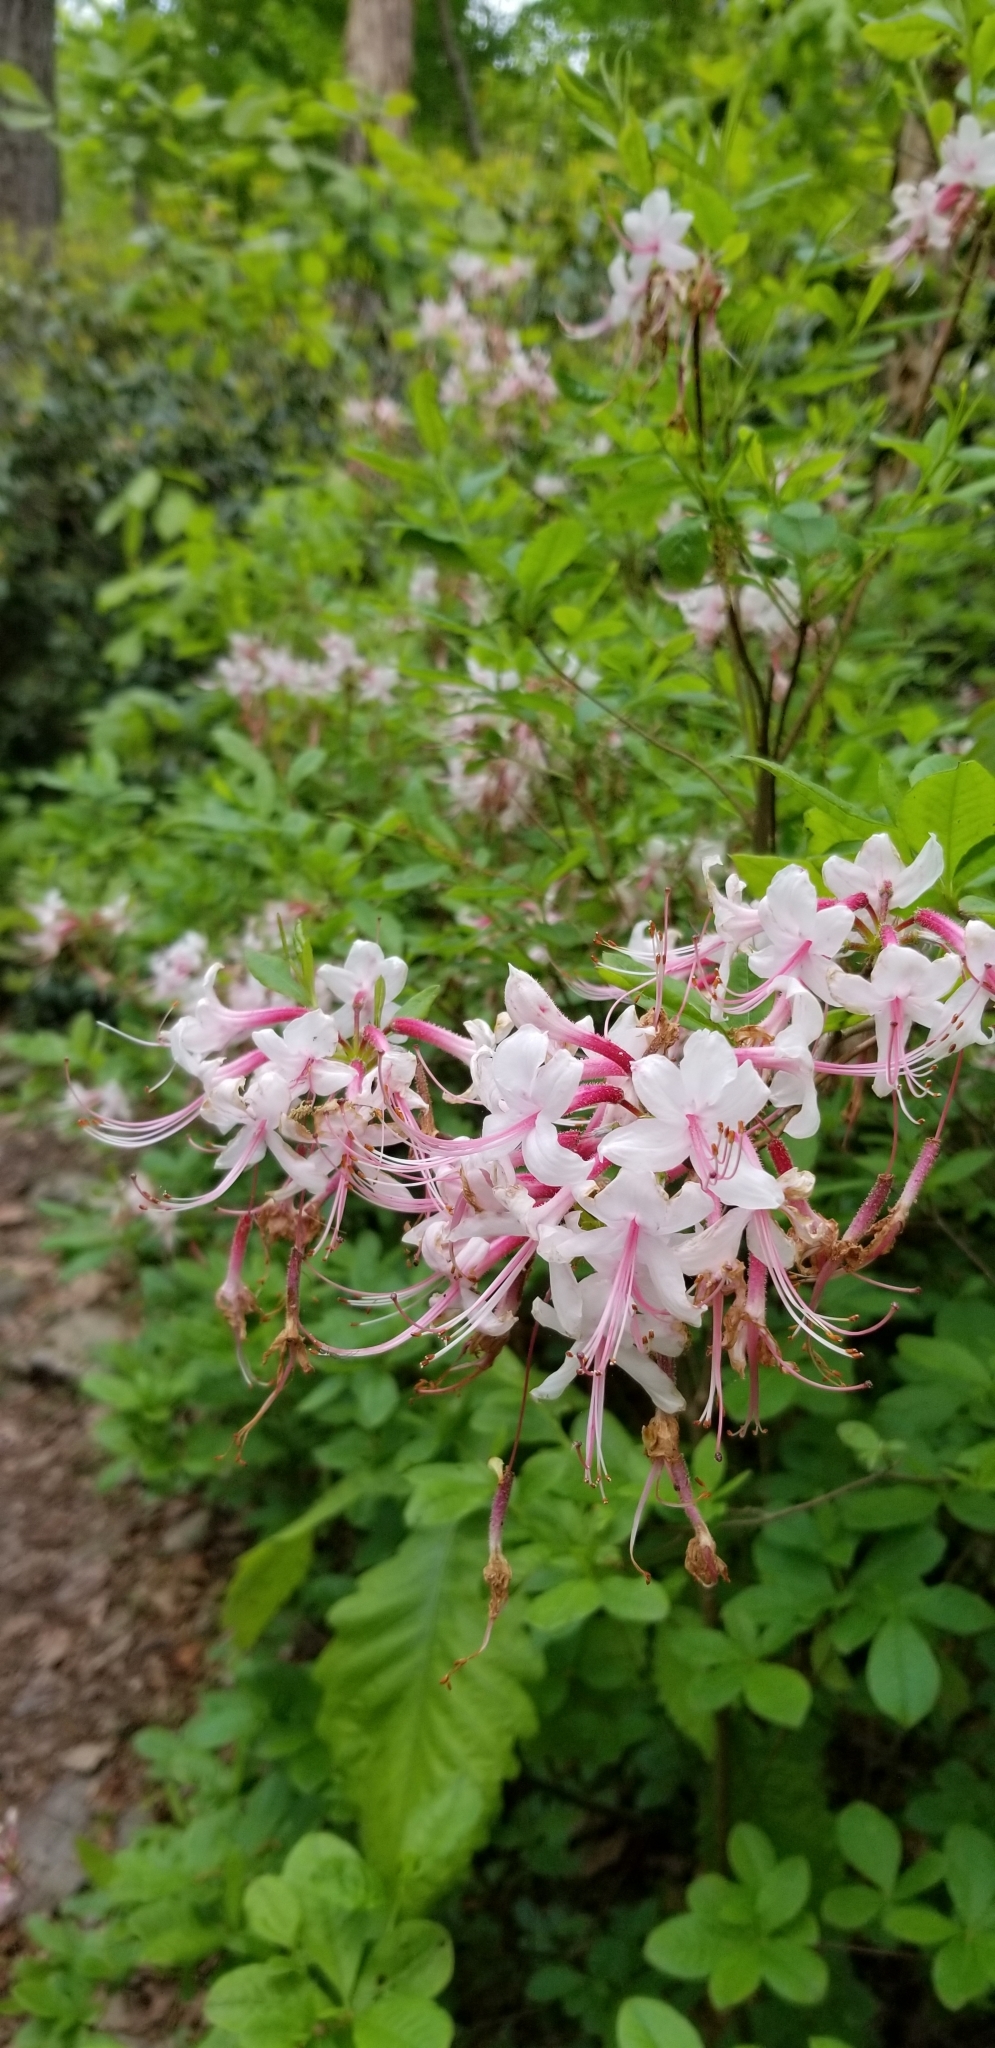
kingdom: Plantae
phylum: Tracheophyta
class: Magnoliopsida
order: Ericales
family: Ericaceae
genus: Rhododendron
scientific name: Rhododendron periclymenoides
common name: Election-pink
